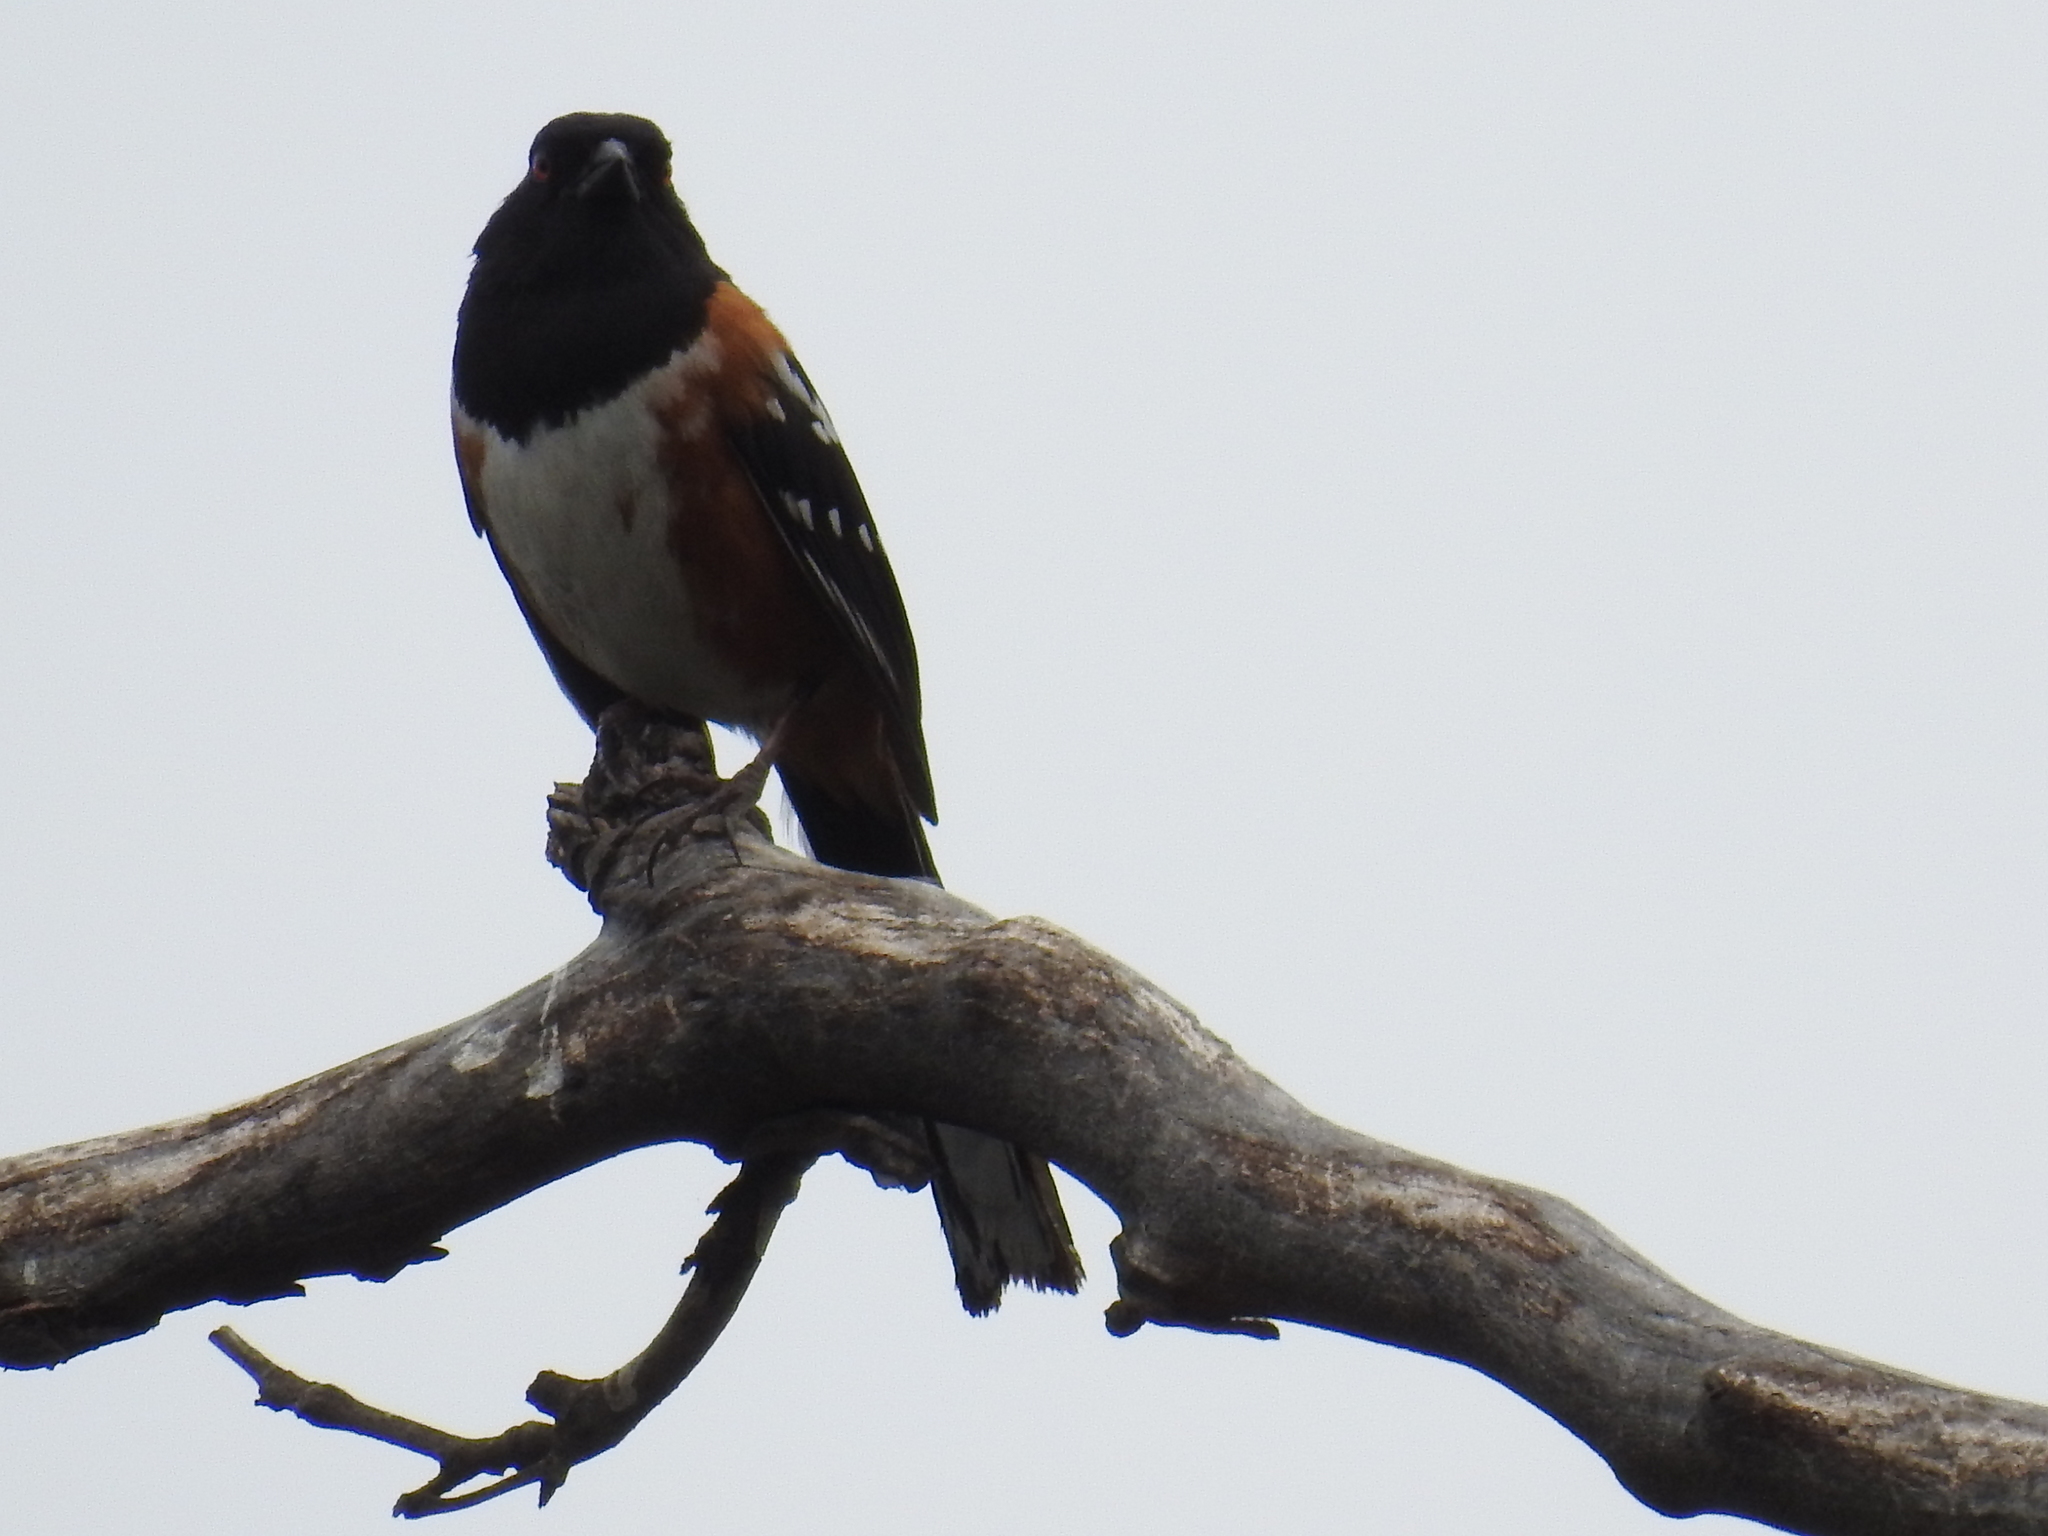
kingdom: Animalia
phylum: Chordata
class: Aves
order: Passeriformes
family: Passerellidae
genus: Pipilo
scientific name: Pipilo maculatus
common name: Spotted towhee
